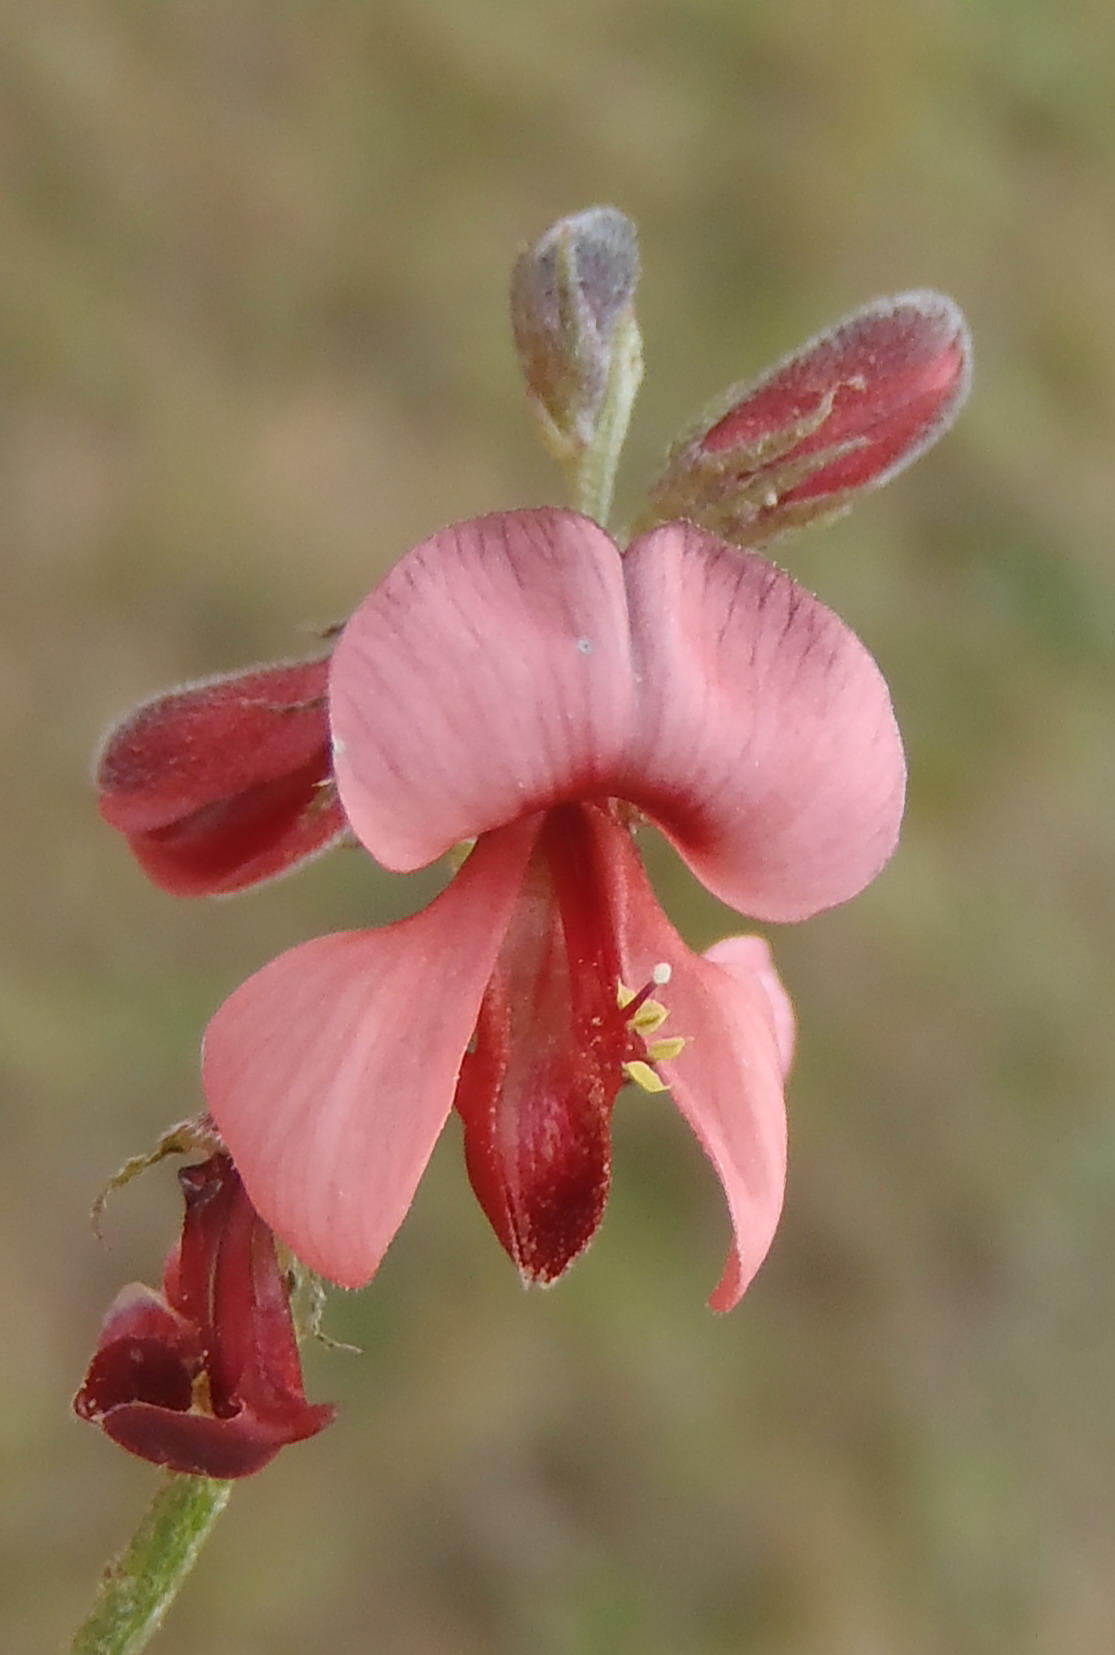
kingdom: Plantae
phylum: Tracheophyta
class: Magnoliopsida
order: Fabales
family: Fabaceae
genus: Indigofera
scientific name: Indigofera heterophylla
